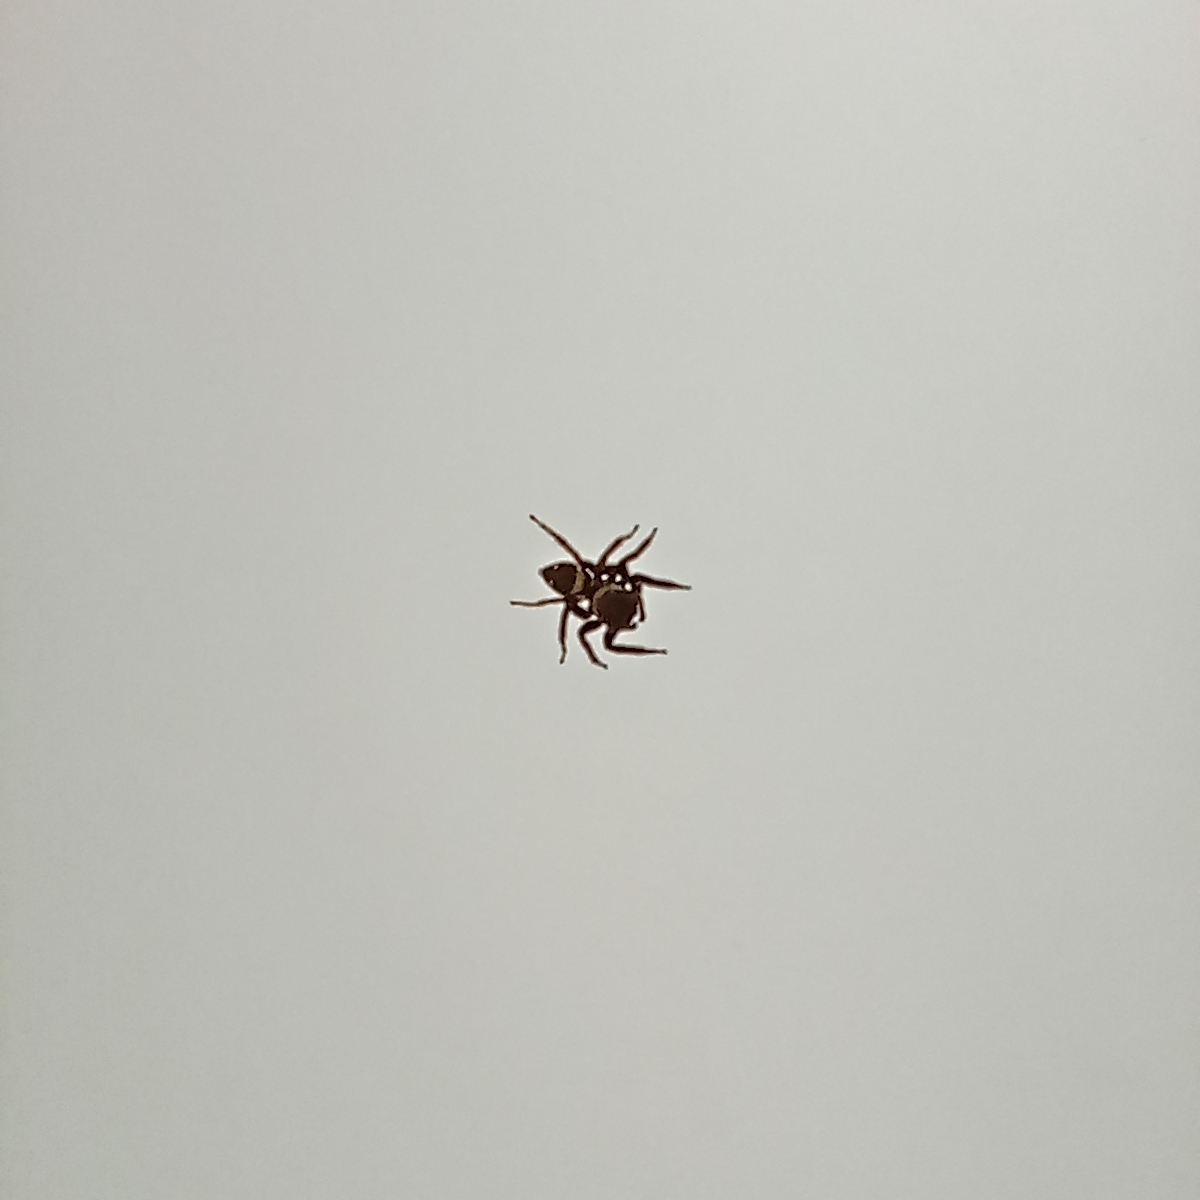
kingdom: Animalia
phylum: Arthropoda
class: Arachnida
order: Araneae
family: Salticidae
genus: Hasarius
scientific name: Hasarius adansoni
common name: Jumping spider
